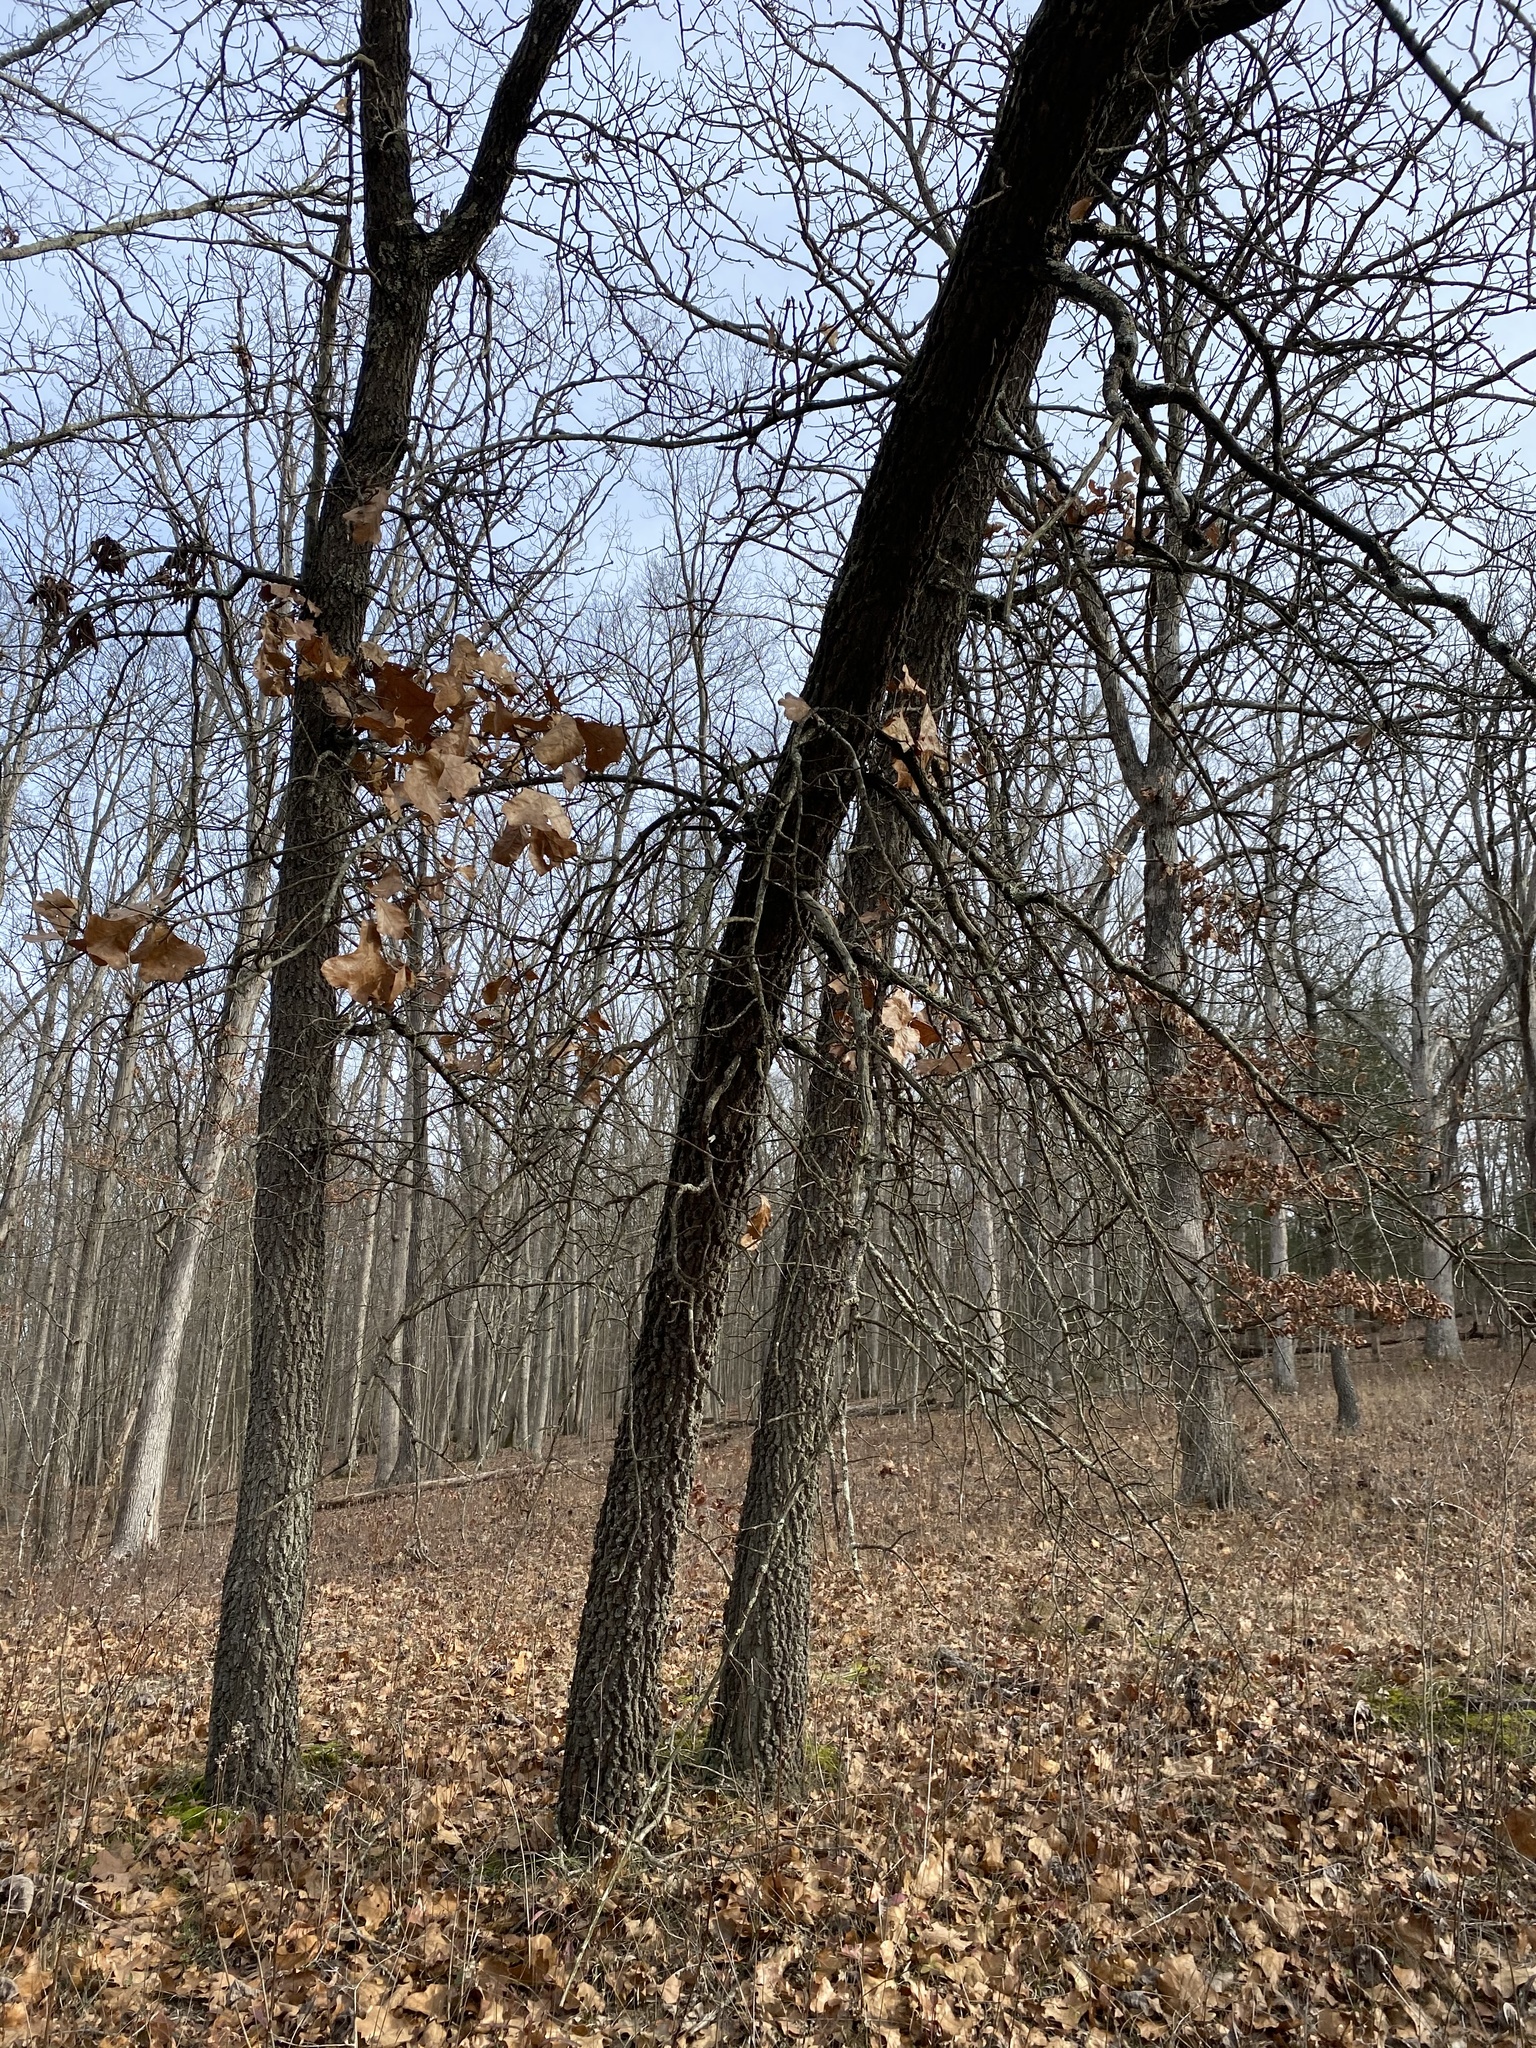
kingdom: Plantae
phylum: Tracheophyta
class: Magnoliopsida
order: Fagales
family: Fagaceae
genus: Quercus
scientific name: Quercus marilandica
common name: Blackjack oak
